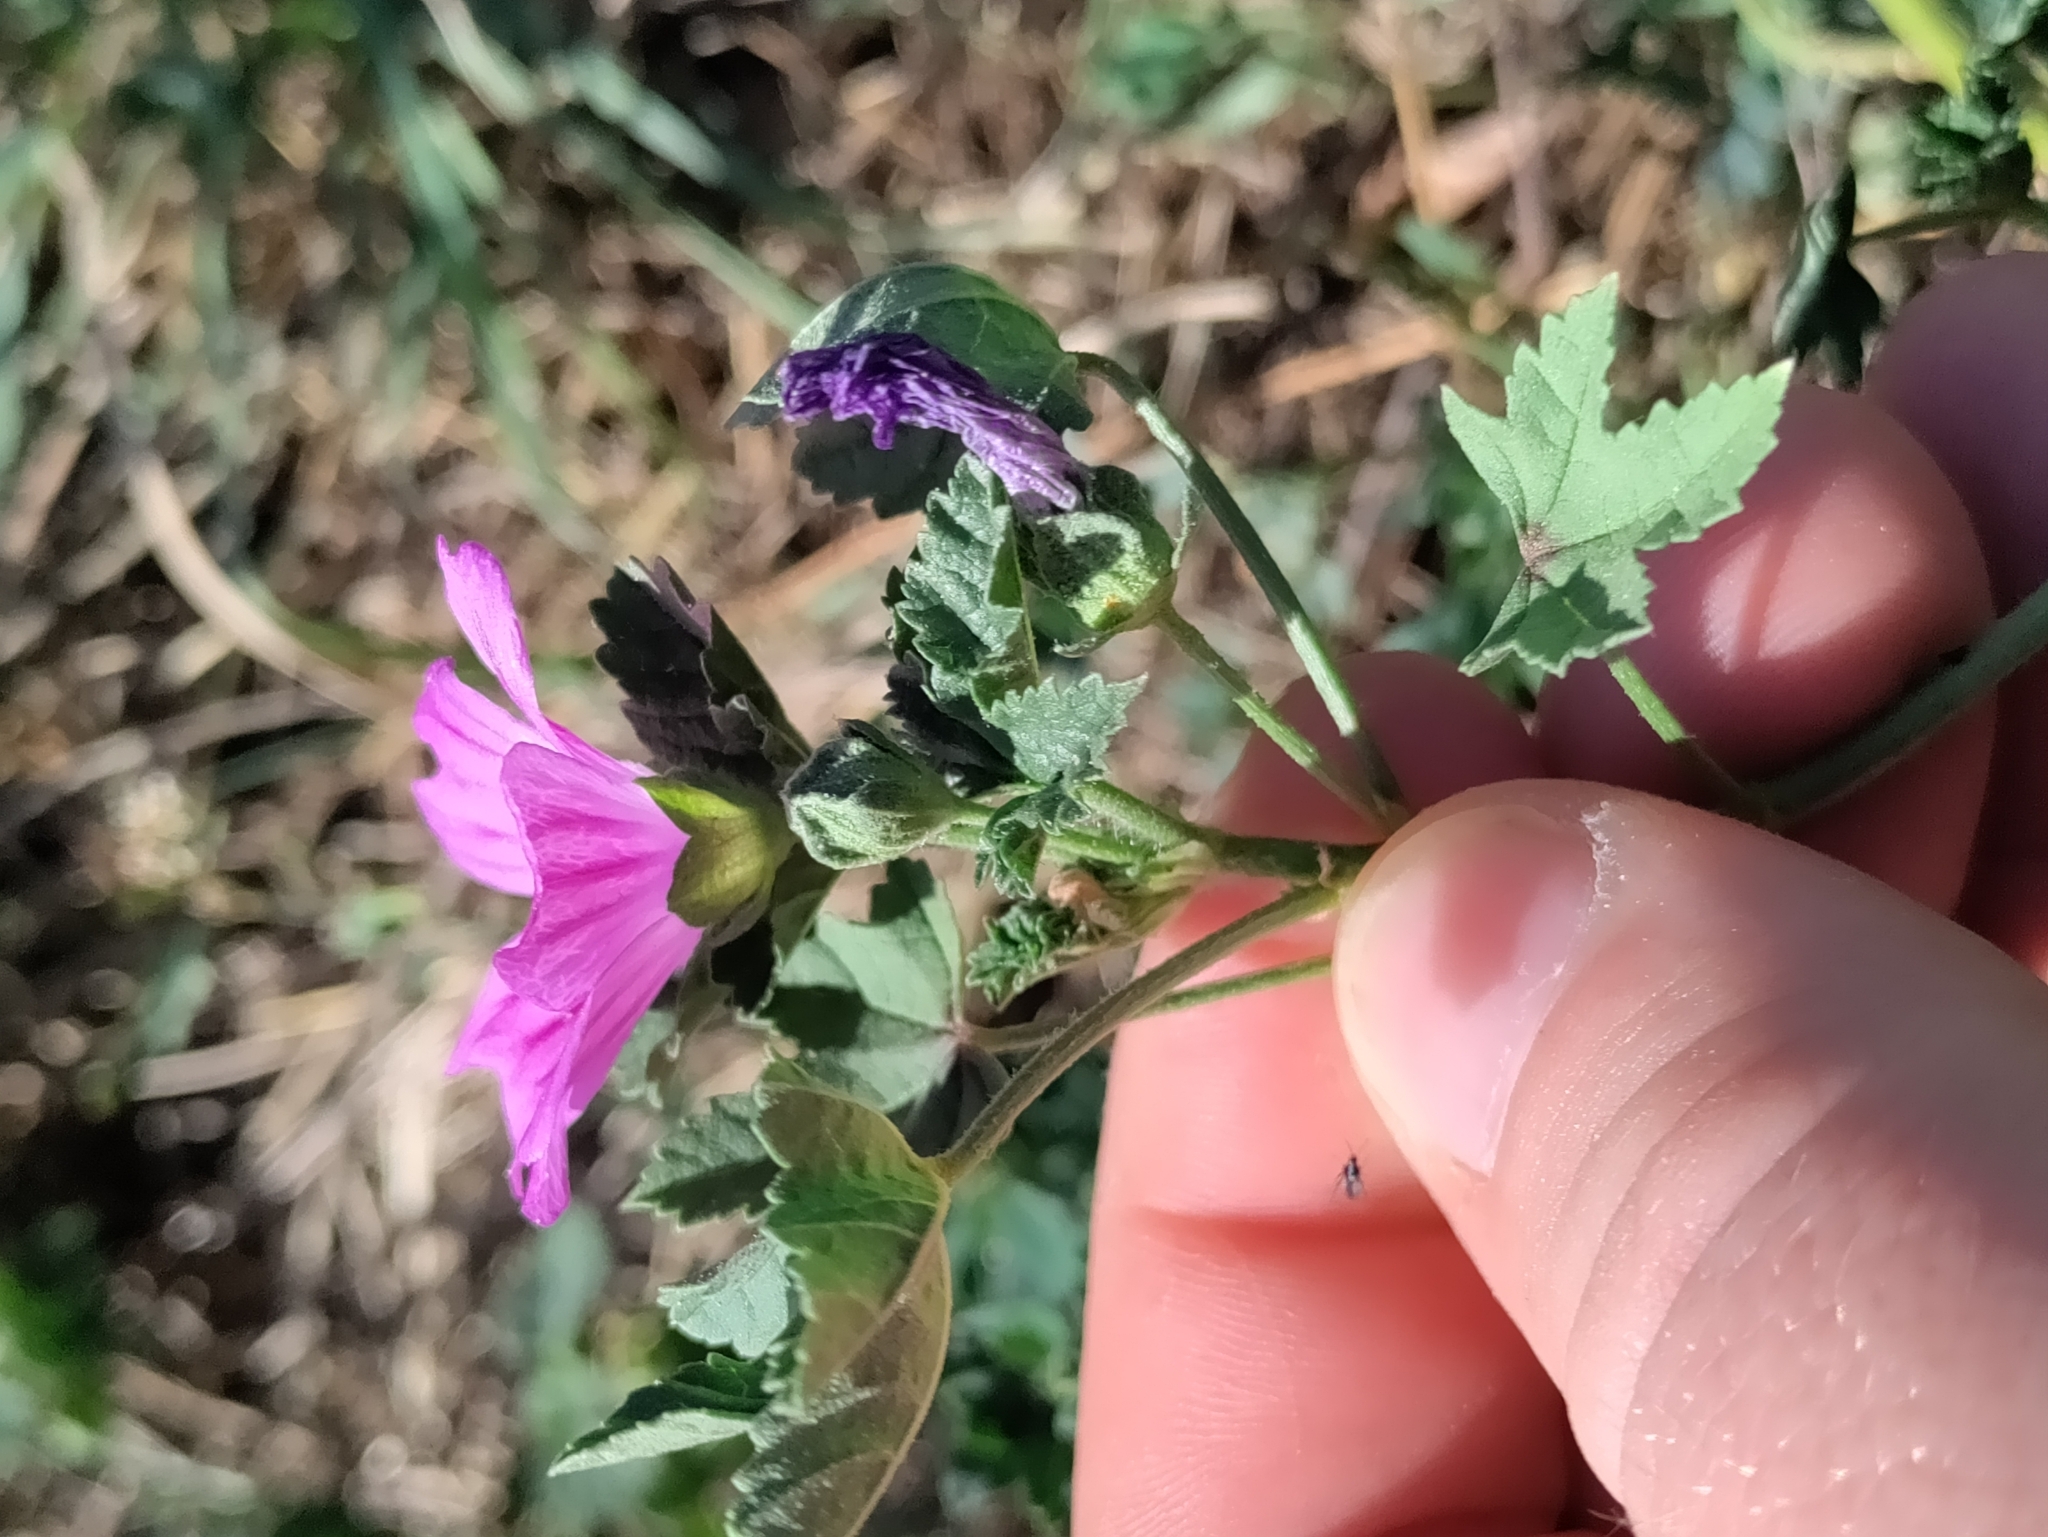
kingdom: Plantae
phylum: Tracheophyta
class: Magnoliopsida
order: Malvales
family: Malvaceae
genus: Malva
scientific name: Malva sylvestris
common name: Common mallow
